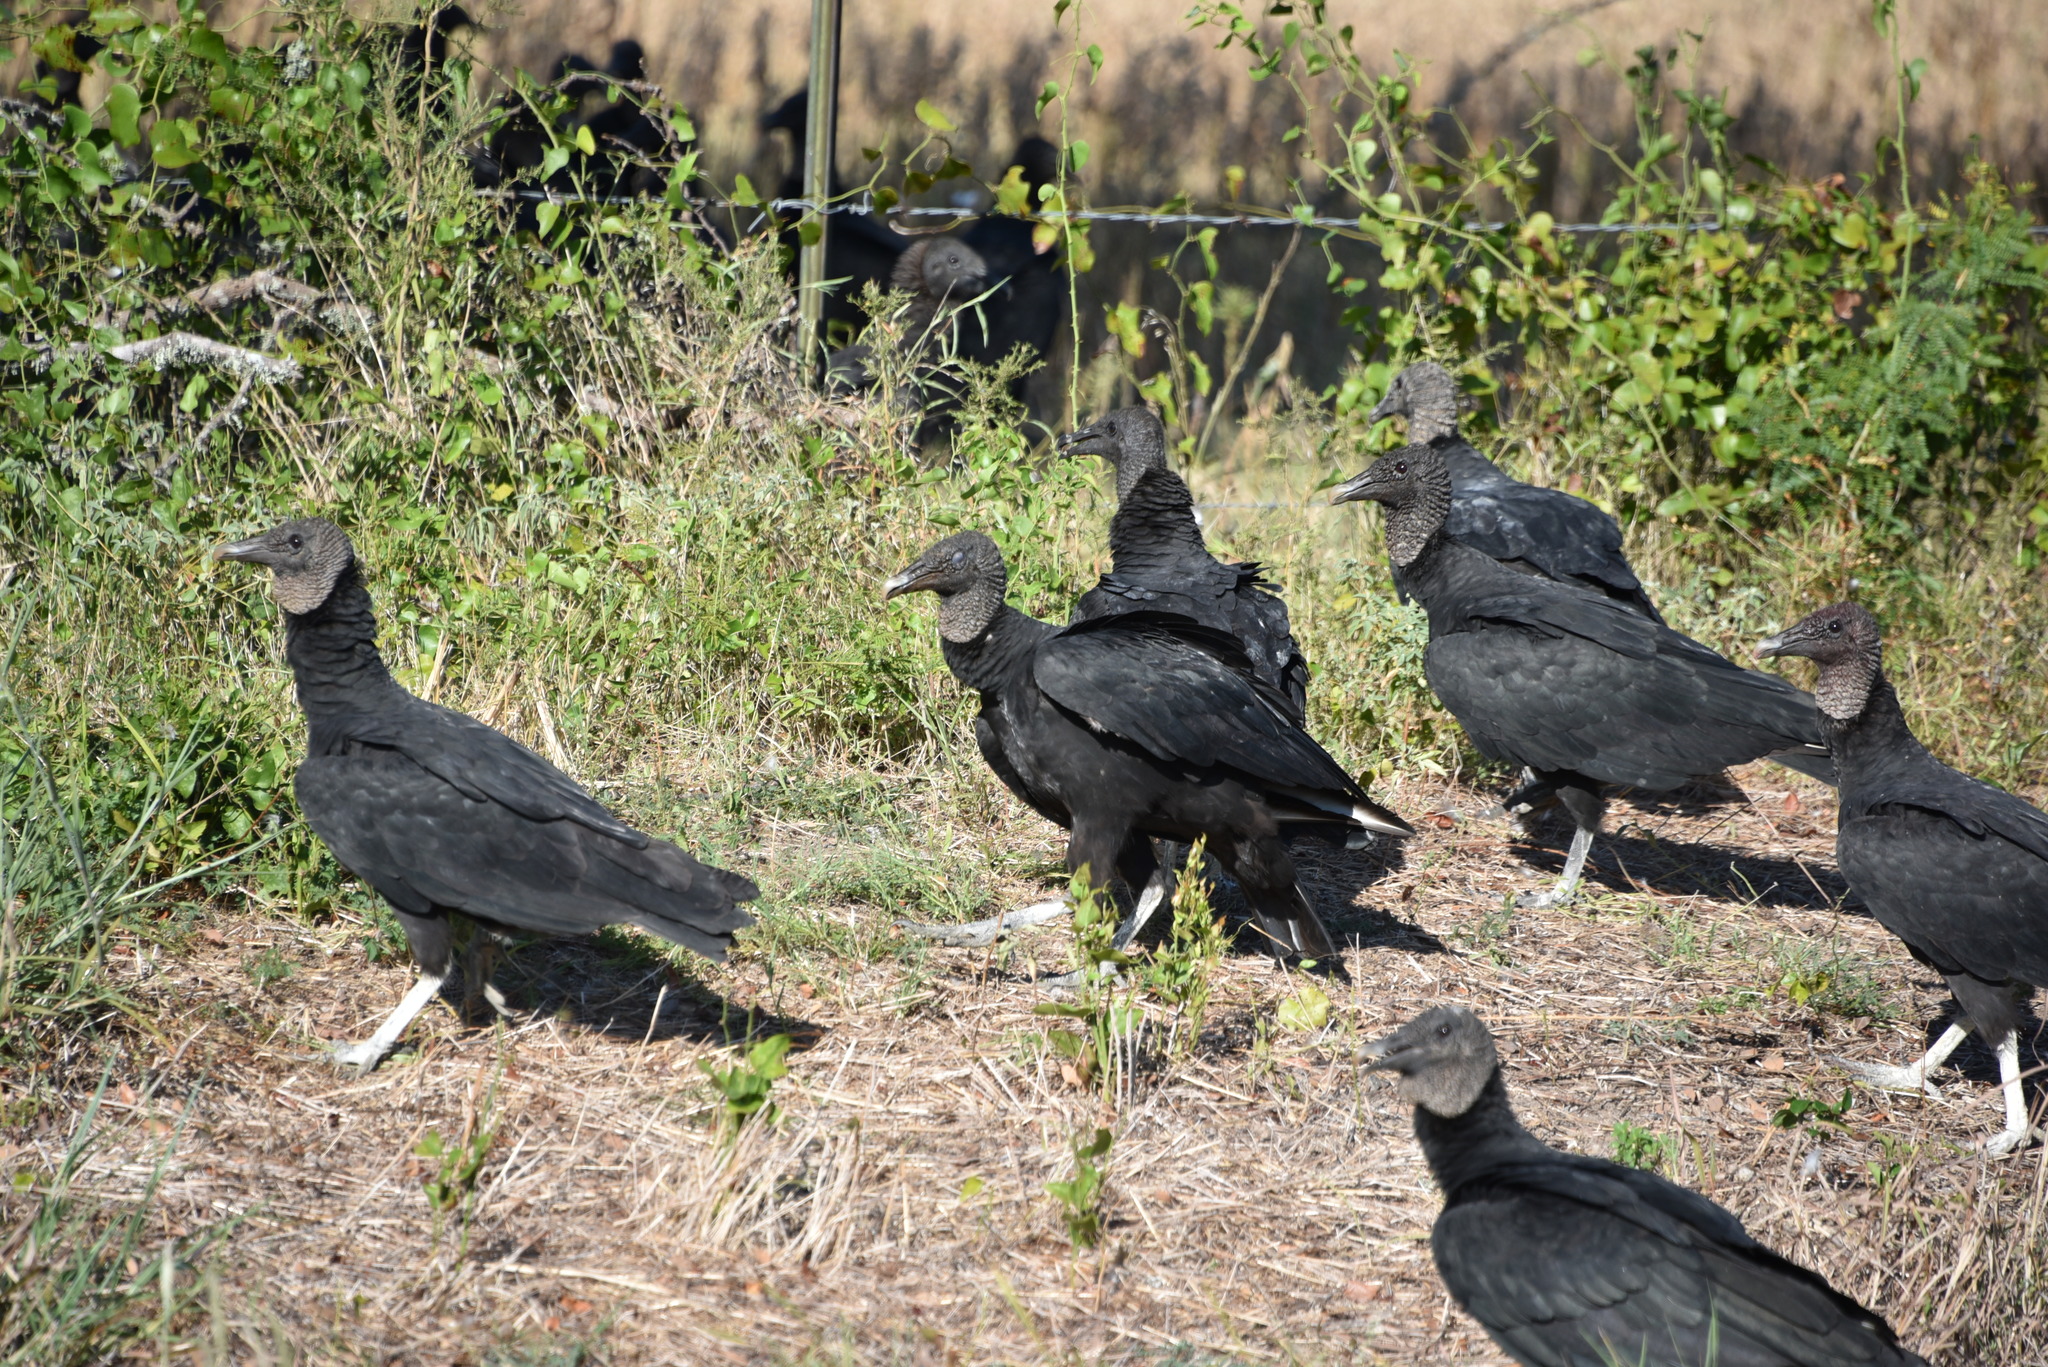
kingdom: Animalia
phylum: Chordata
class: Aves
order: Accipitriformes
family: Cathartidae
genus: Coragyps
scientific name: Coragyps atratus
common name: Black vulture
